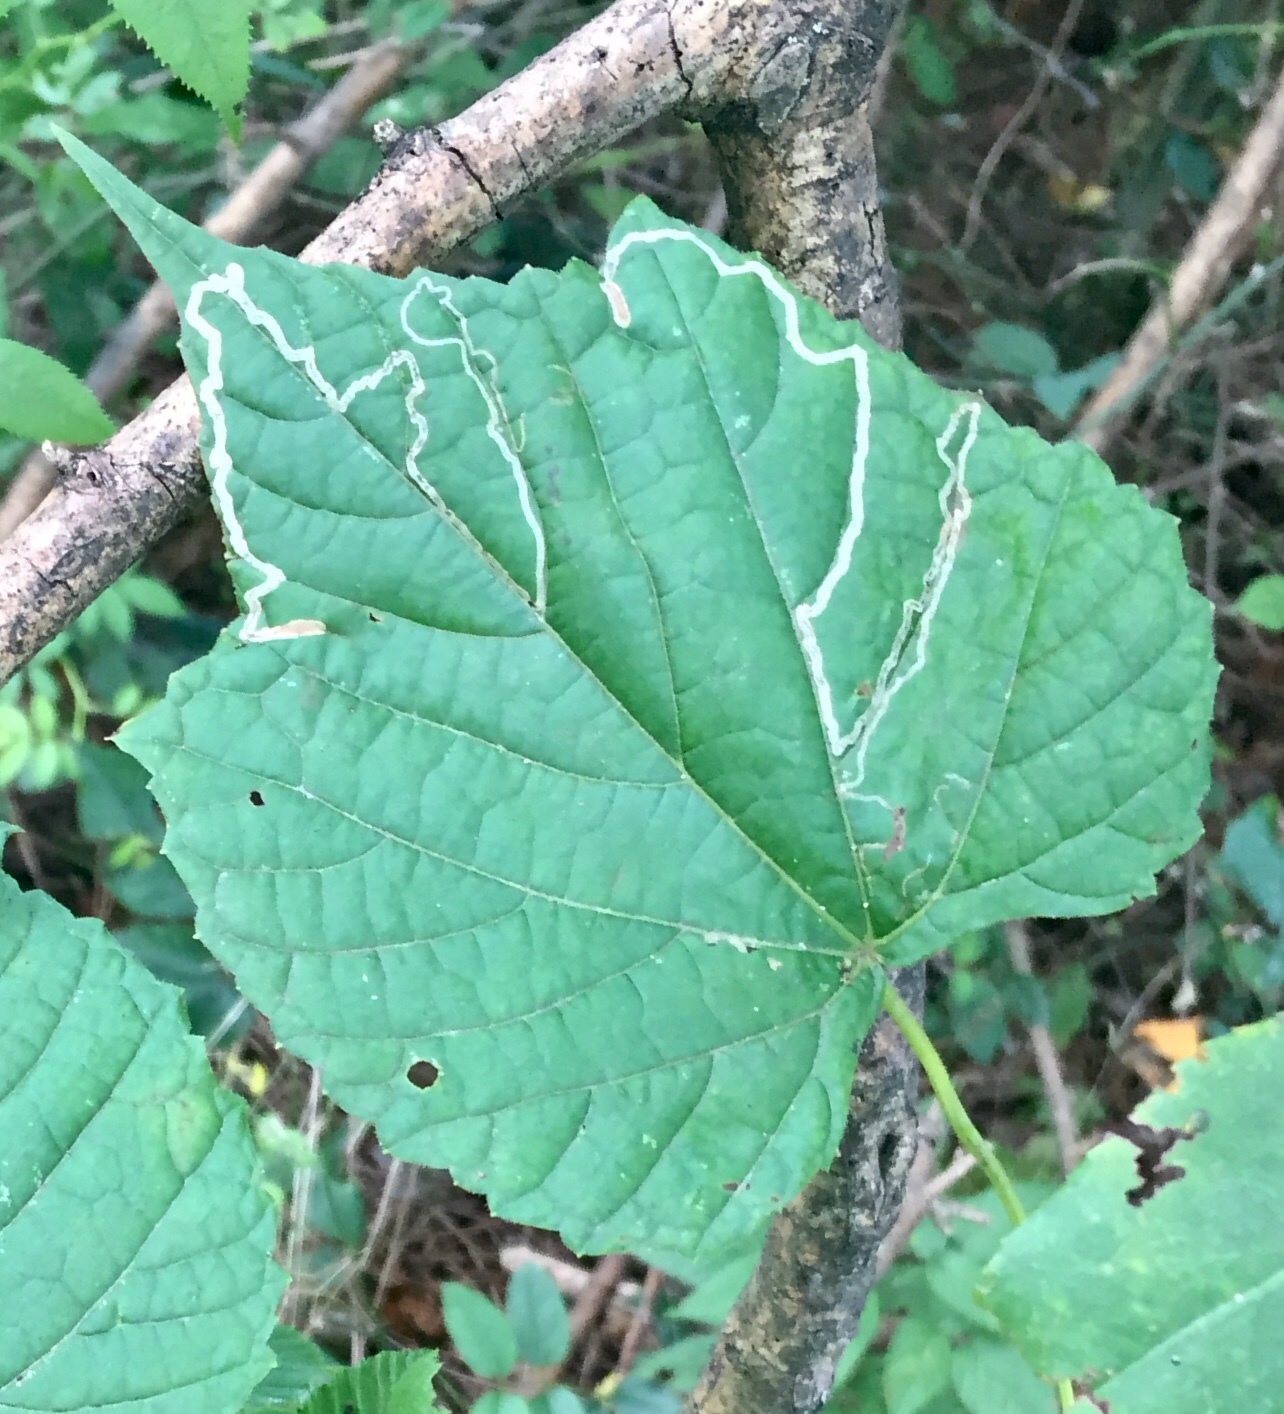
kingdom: Animalia
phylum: Arthropoda
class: Insecta
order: Lepidoptera
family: Gracillariidae
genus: Phyllocnistis
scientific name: Phyllocnistis vitifoliella
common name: Grape leaf-miner moth
